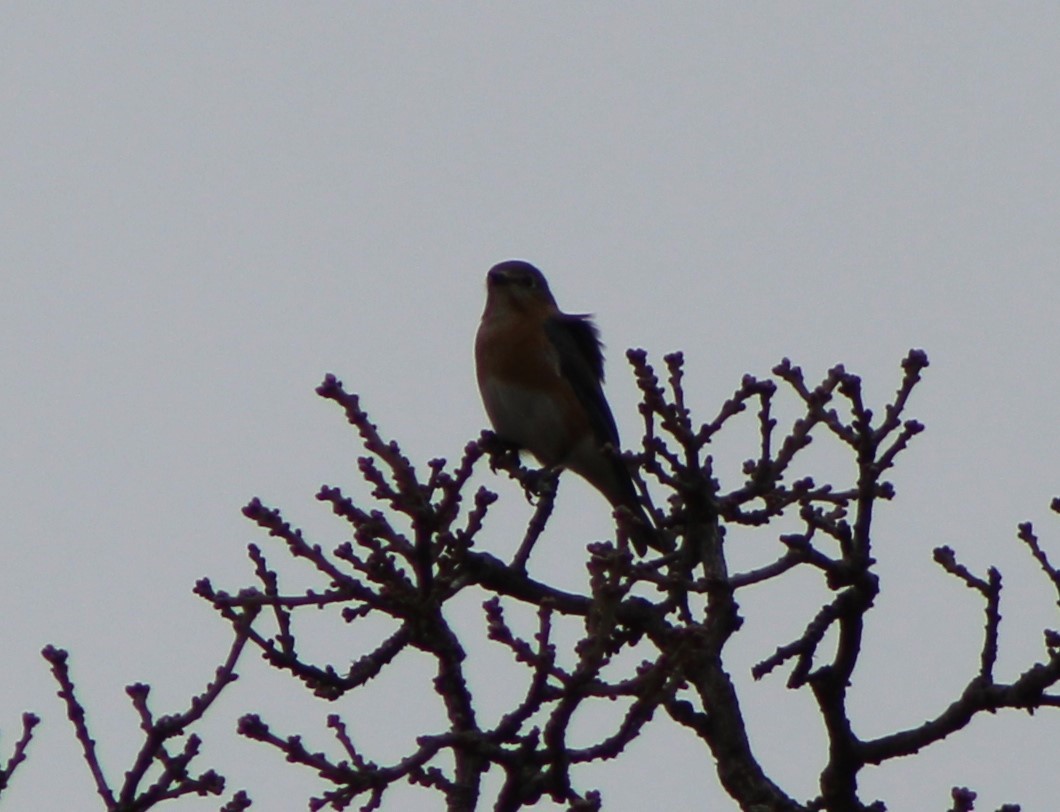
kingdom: Animalia
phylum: Chordata
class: Aves
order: Passeriformes
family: Turdidae
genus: Sialia
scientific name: Sialia sialis
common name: Eastern bluebird
